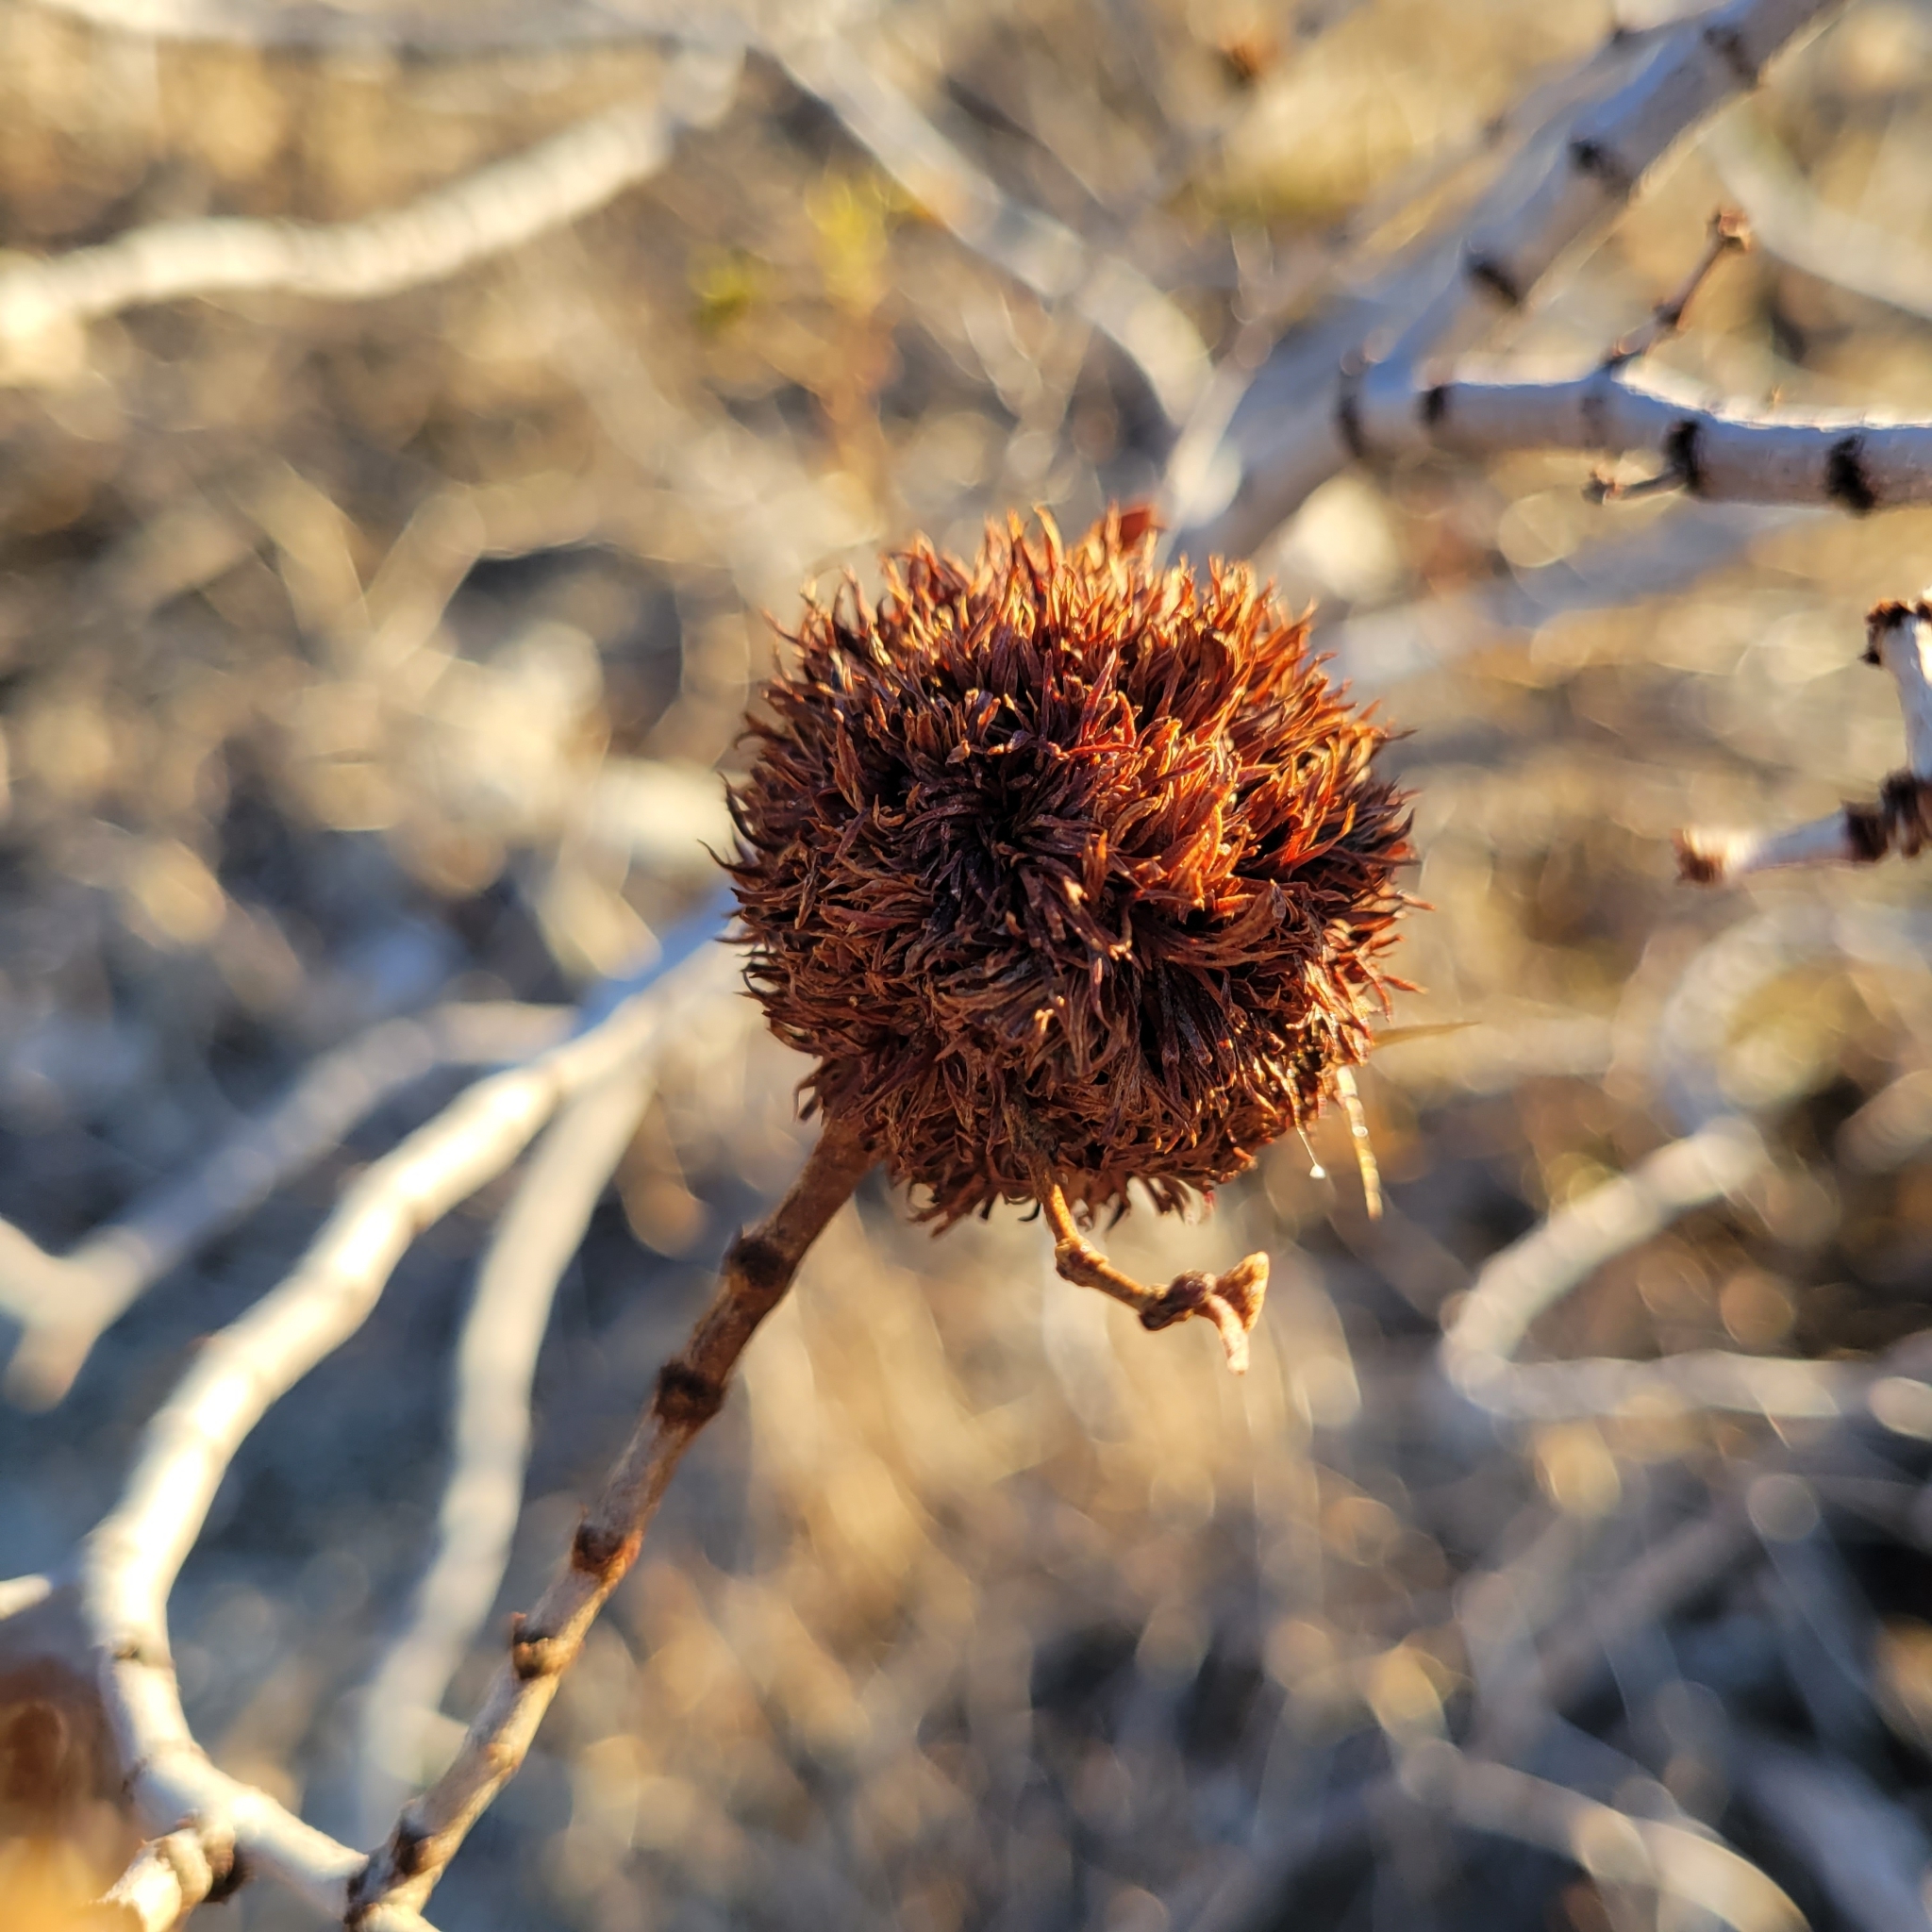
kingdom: Animalia
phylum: Arthropoda
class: Insecta
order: Diptera
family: Cecidomyiidae
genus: Asphondylia
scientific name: Asphondylia auripila
